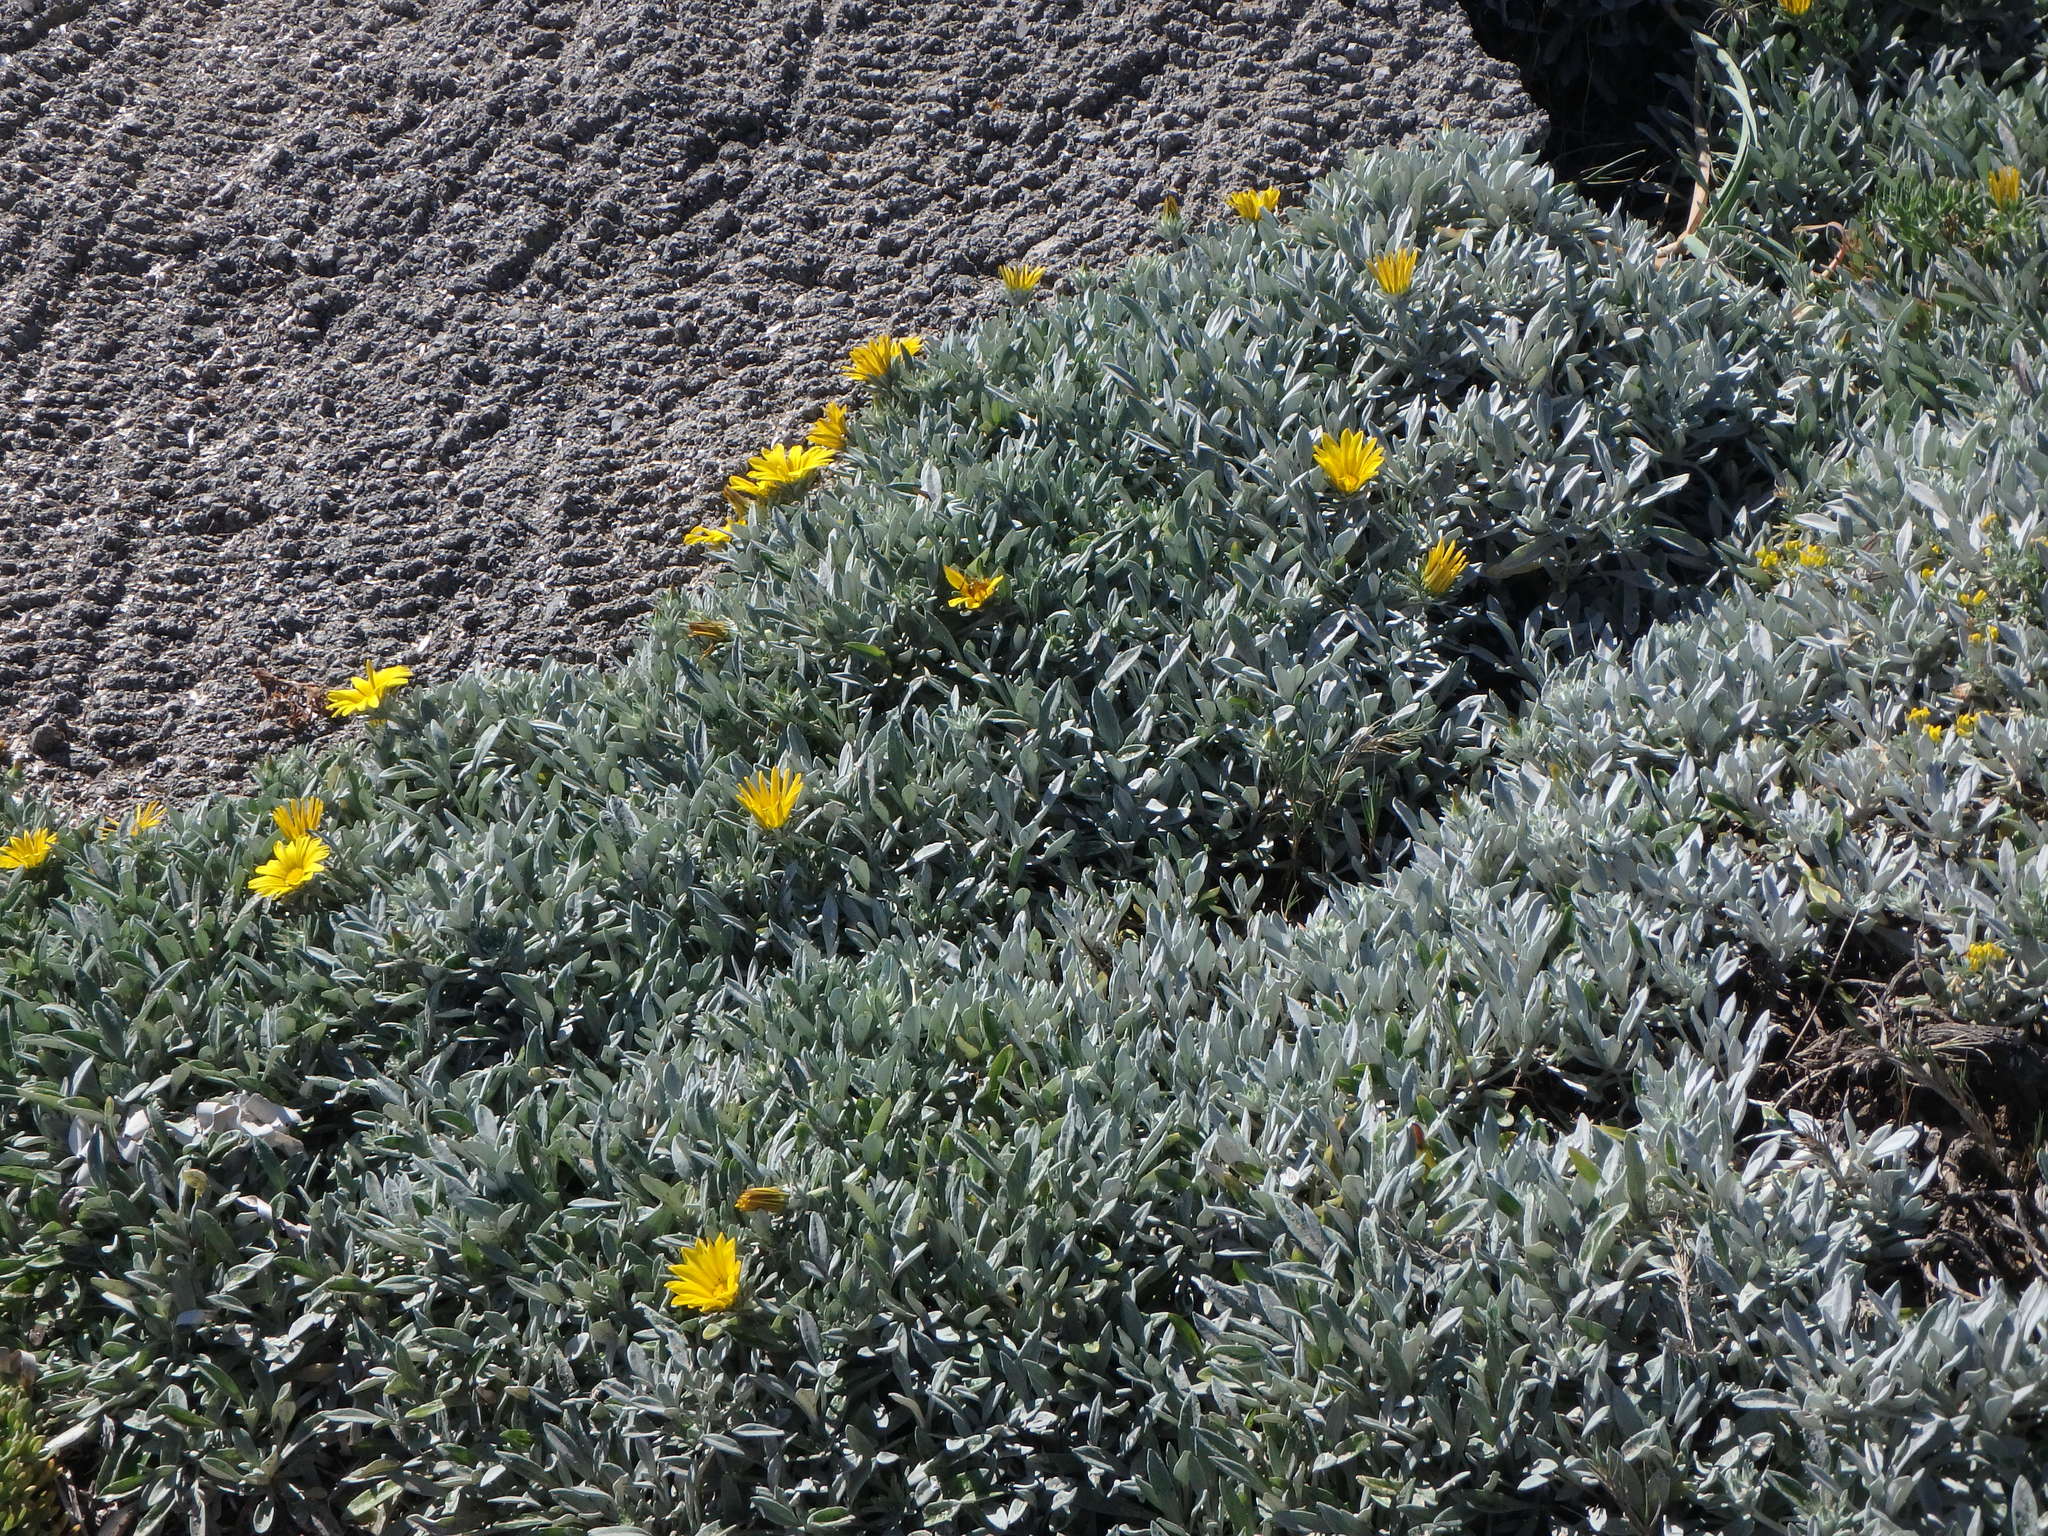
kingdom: Plantae
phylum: Tracheophyta
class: Magnoliopsida
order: Asterales
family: Asteraceae
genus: Gazania
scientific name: Gazania rigens
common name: Treasureflower
